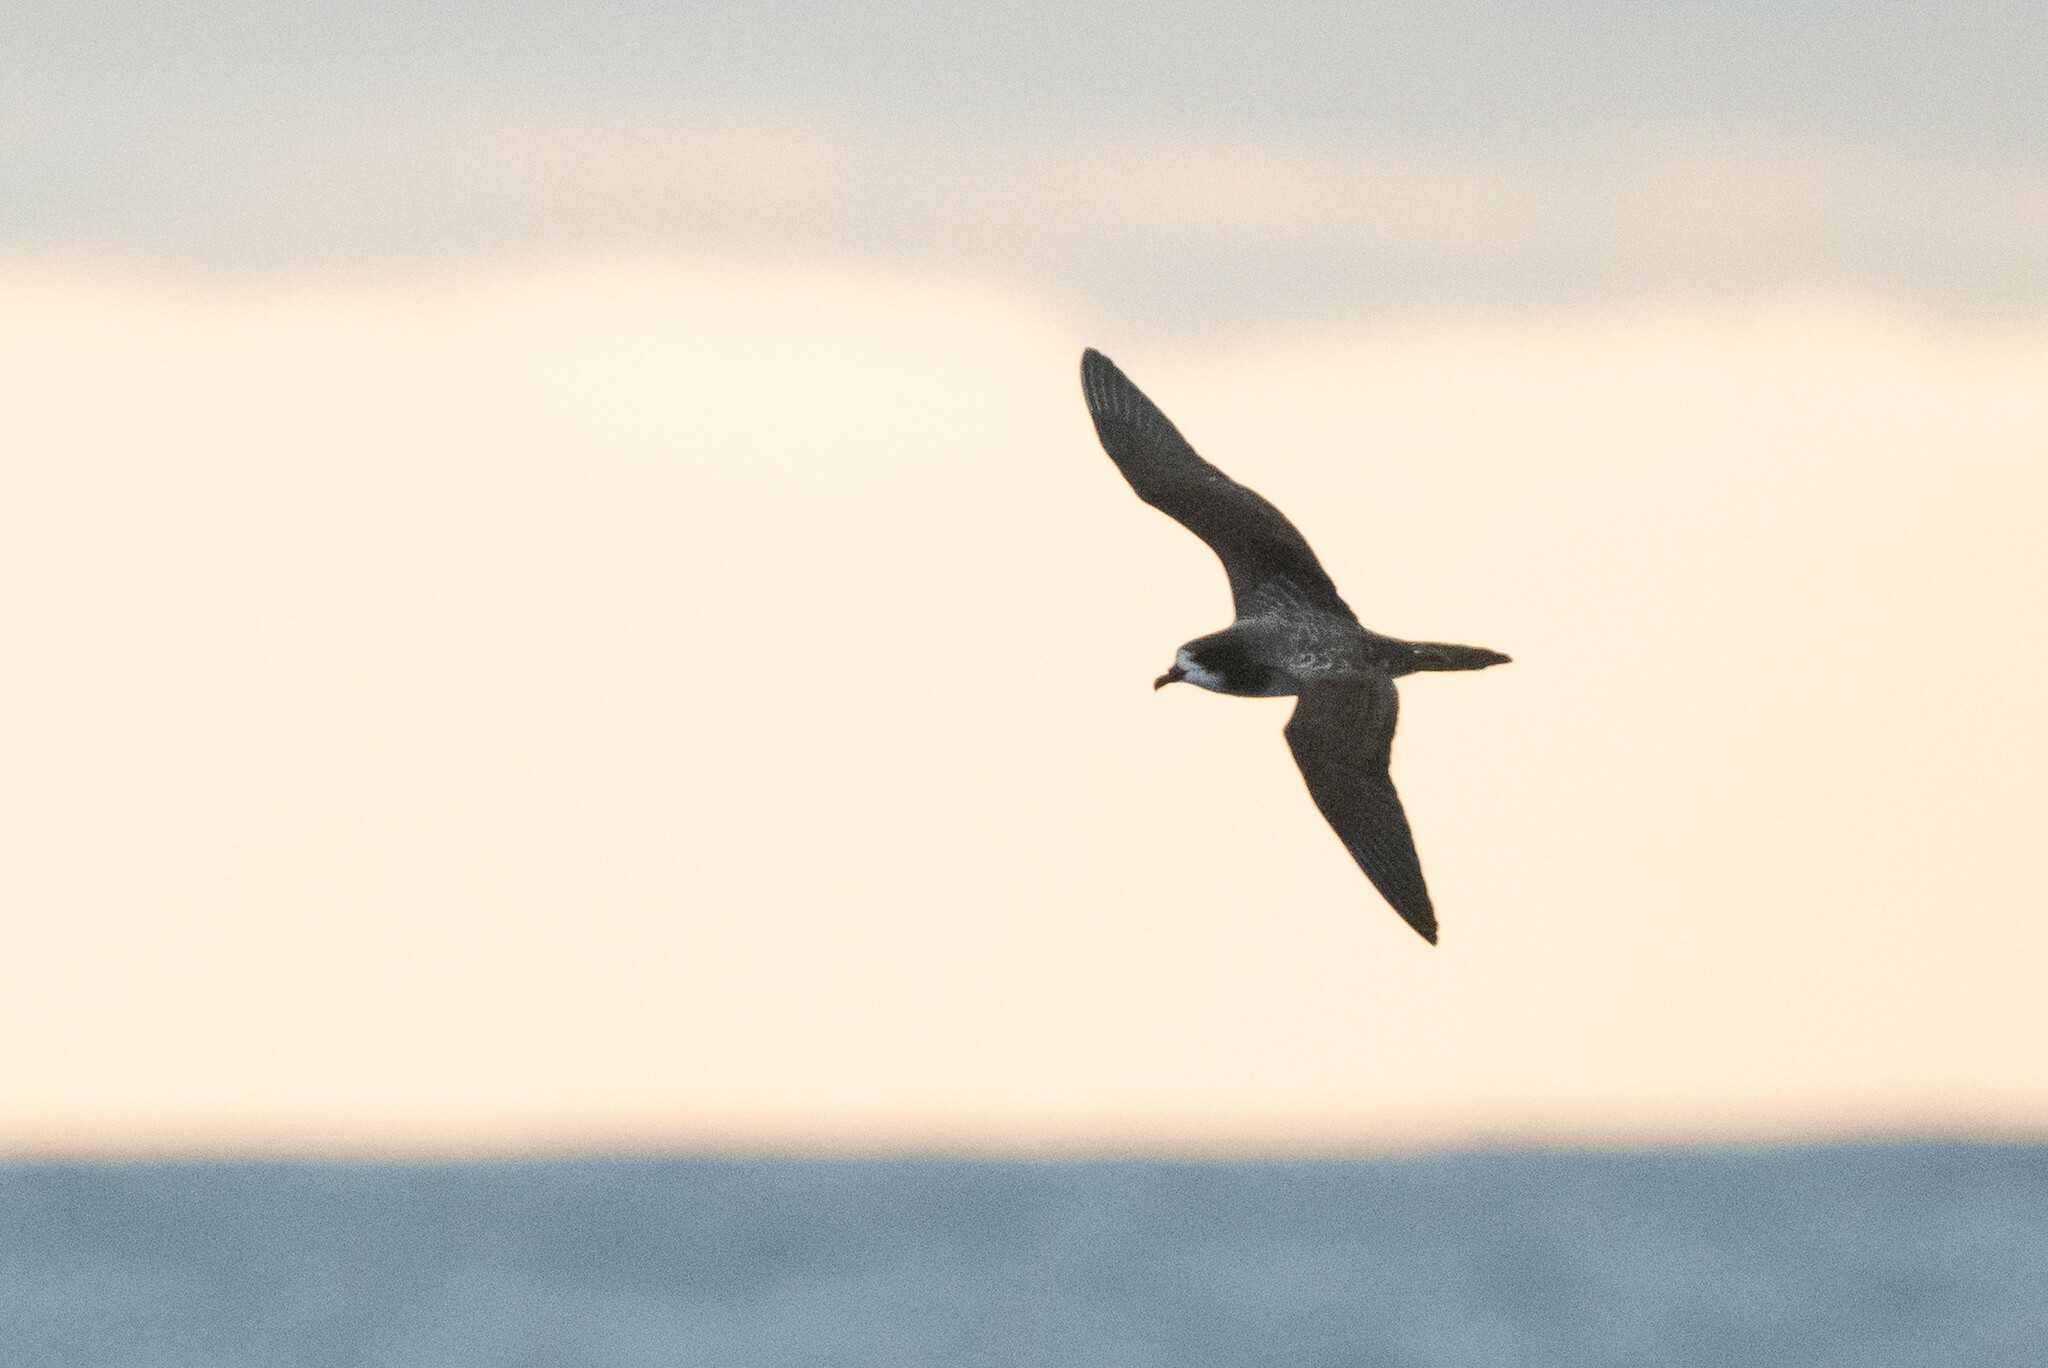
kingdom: Animalia
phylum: Chordata
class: Aves
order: Procellariiformes
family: Procellariidae
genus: Pterodroma
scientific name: Pterodroma phaeopygia
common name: Galapagos petrel
